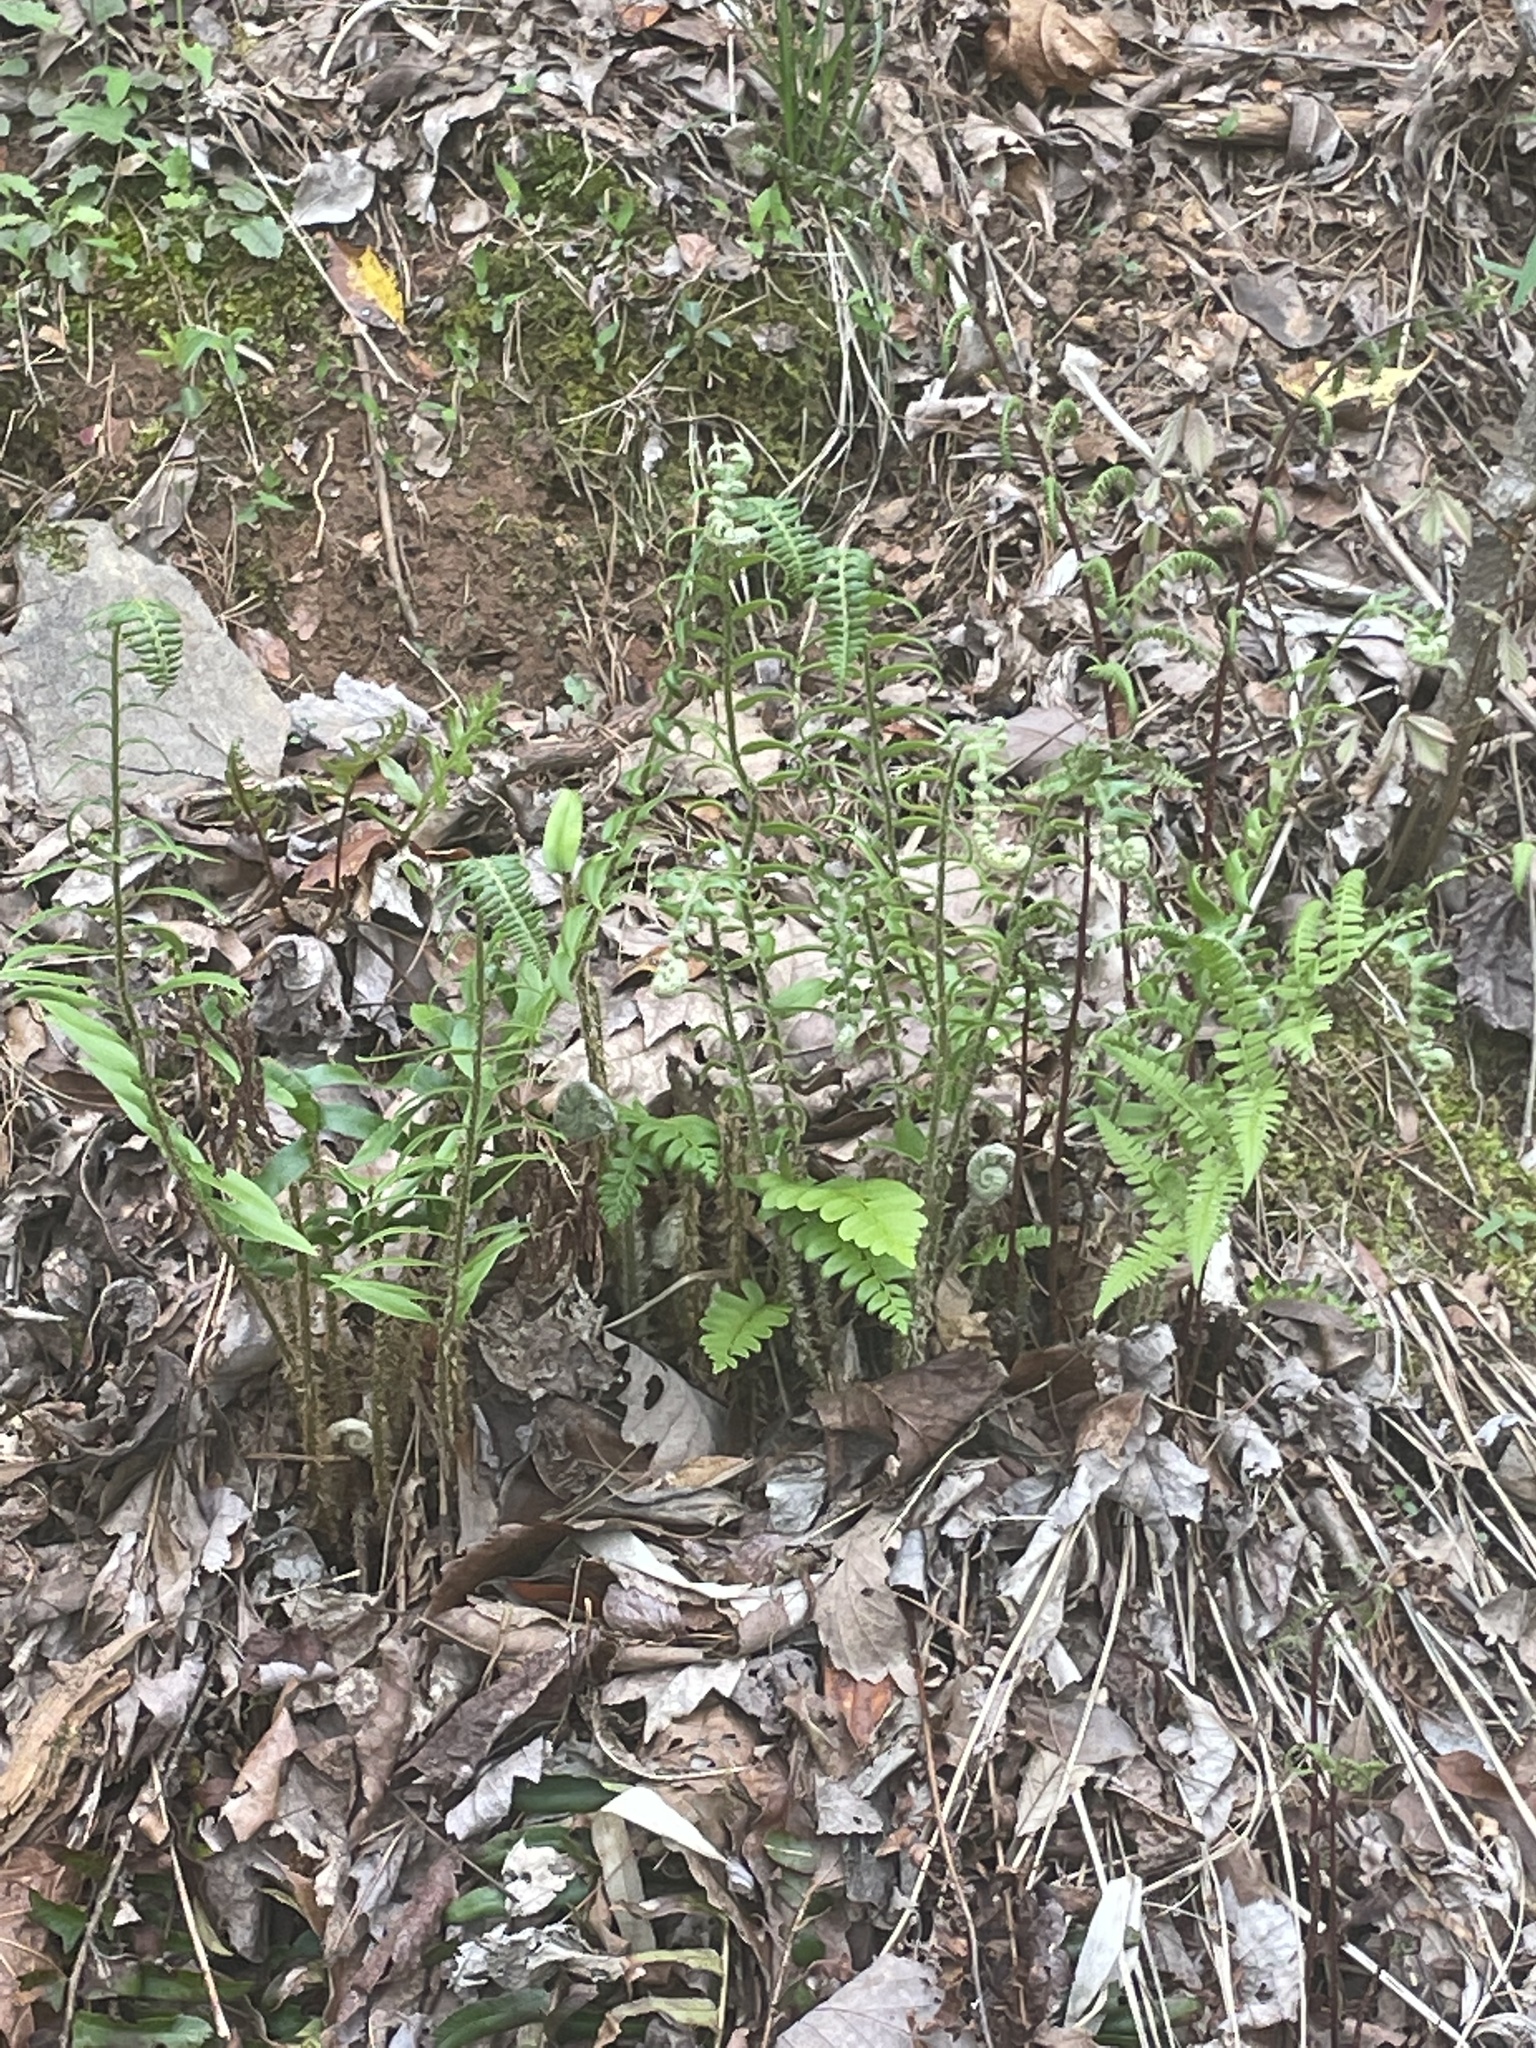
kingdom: Plantae
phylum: Tracheophyta
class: Polypodiopsida
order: Polypodiales
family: Dryopteridaceae
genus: Polystichum
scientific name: Polystichum acrostichoides
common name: Christmas fern
